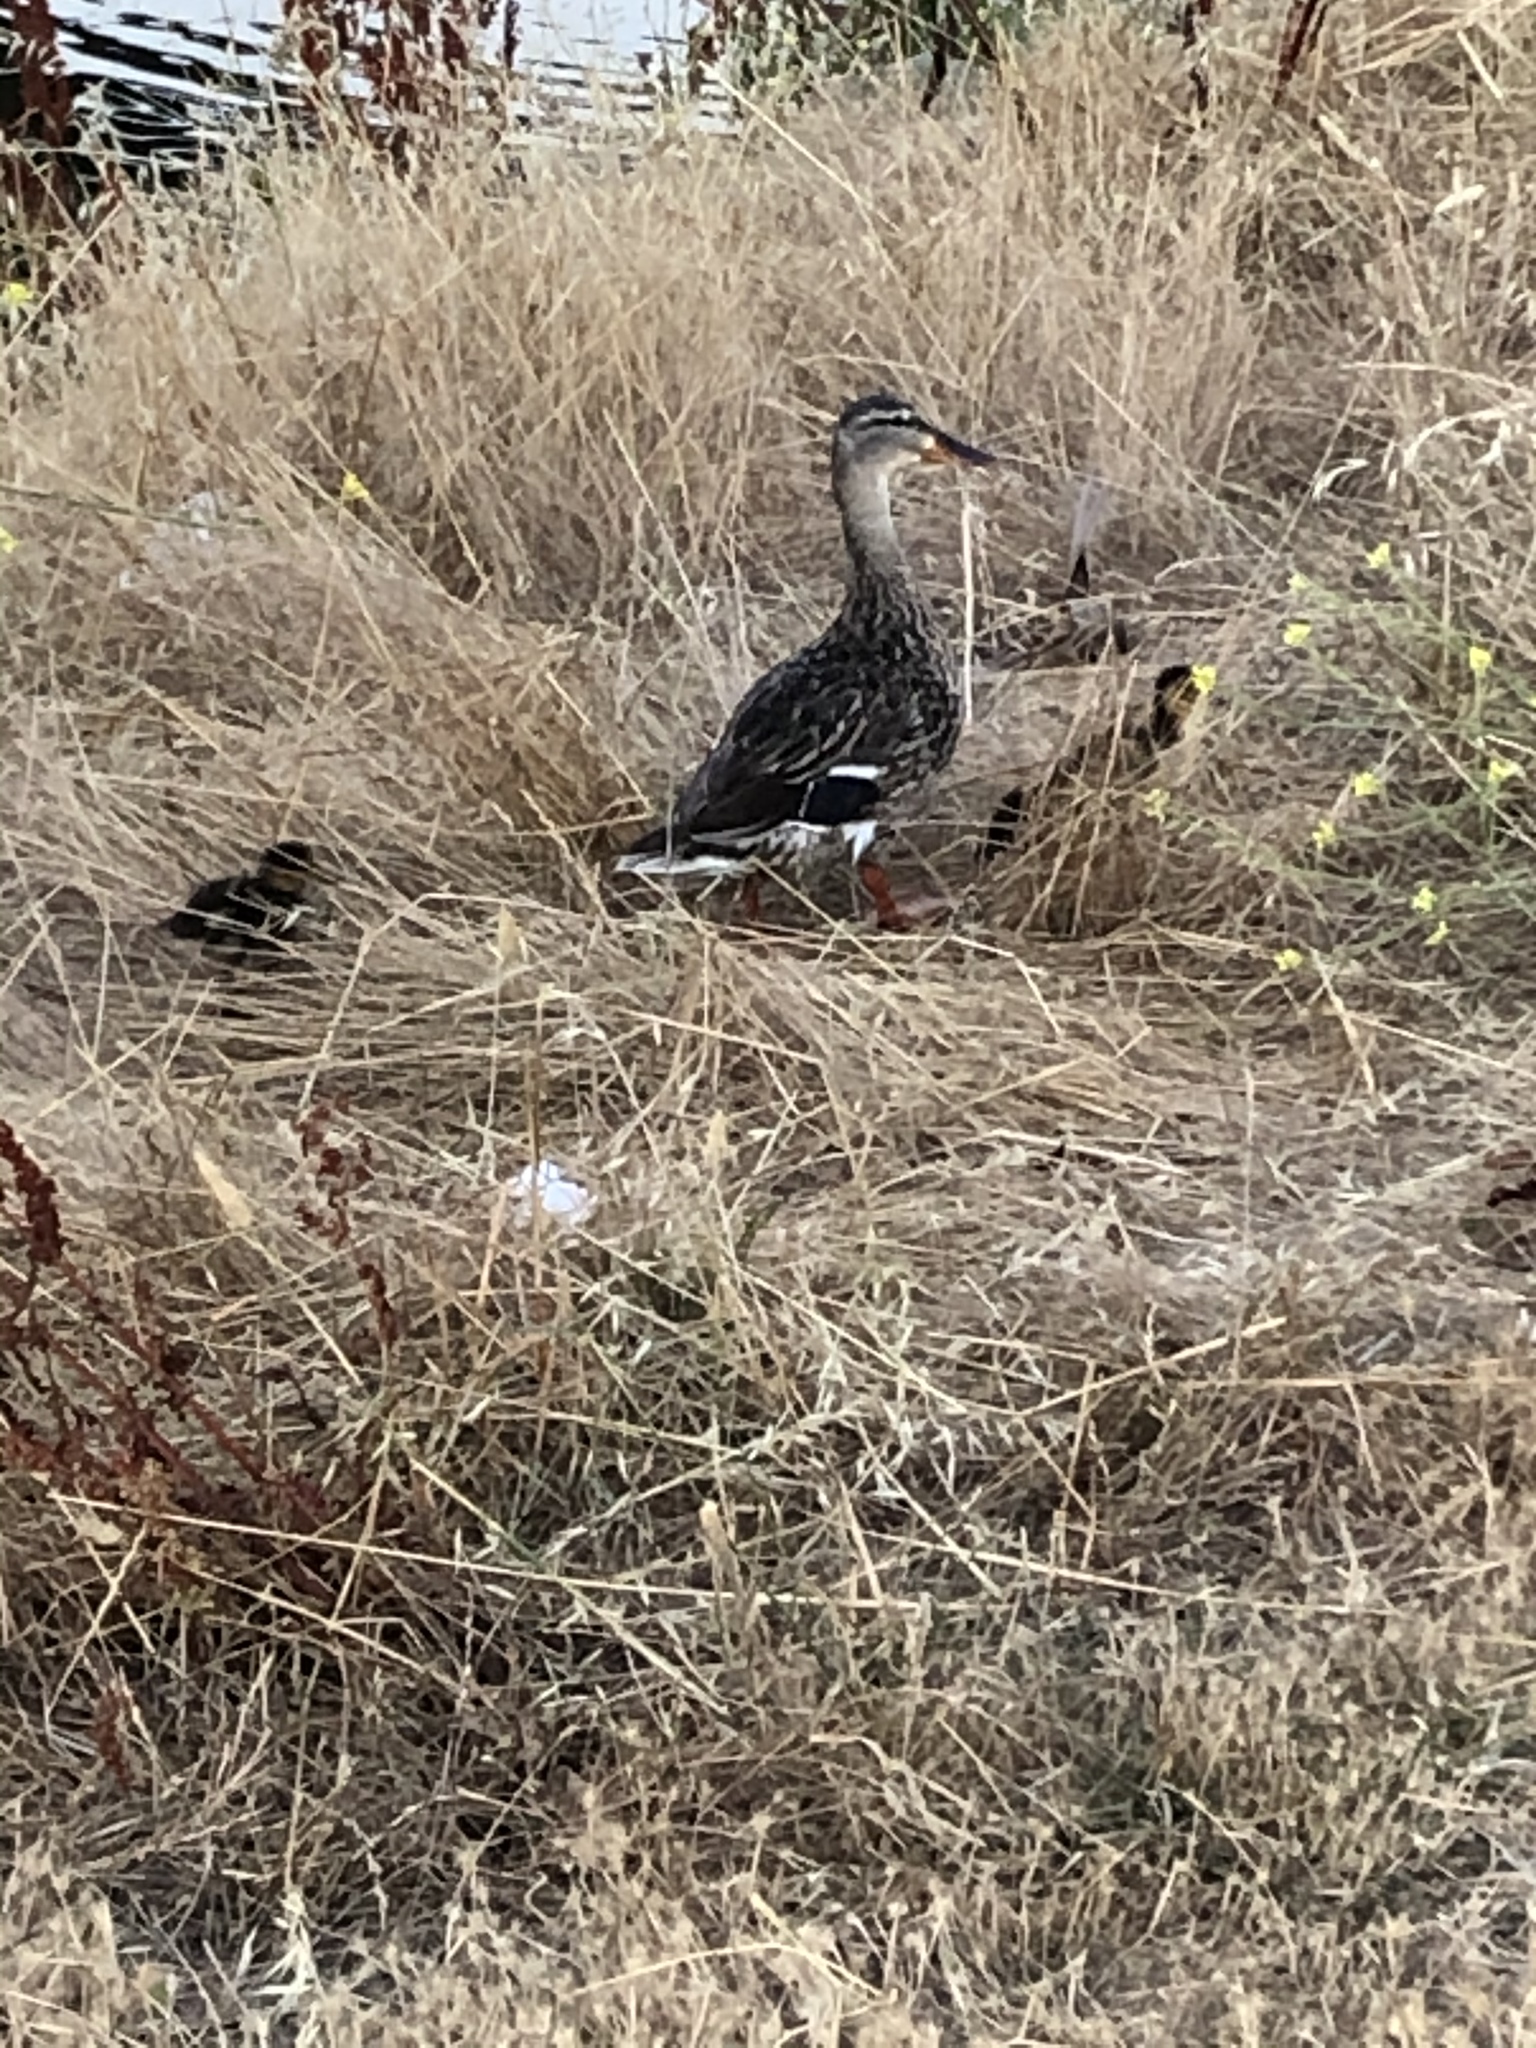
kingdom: Animalia
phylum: Chordata
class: Aves
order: Anseriformes
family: Anatidae
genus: Anas
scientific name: Anas platyrhynchos
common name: Mallard
